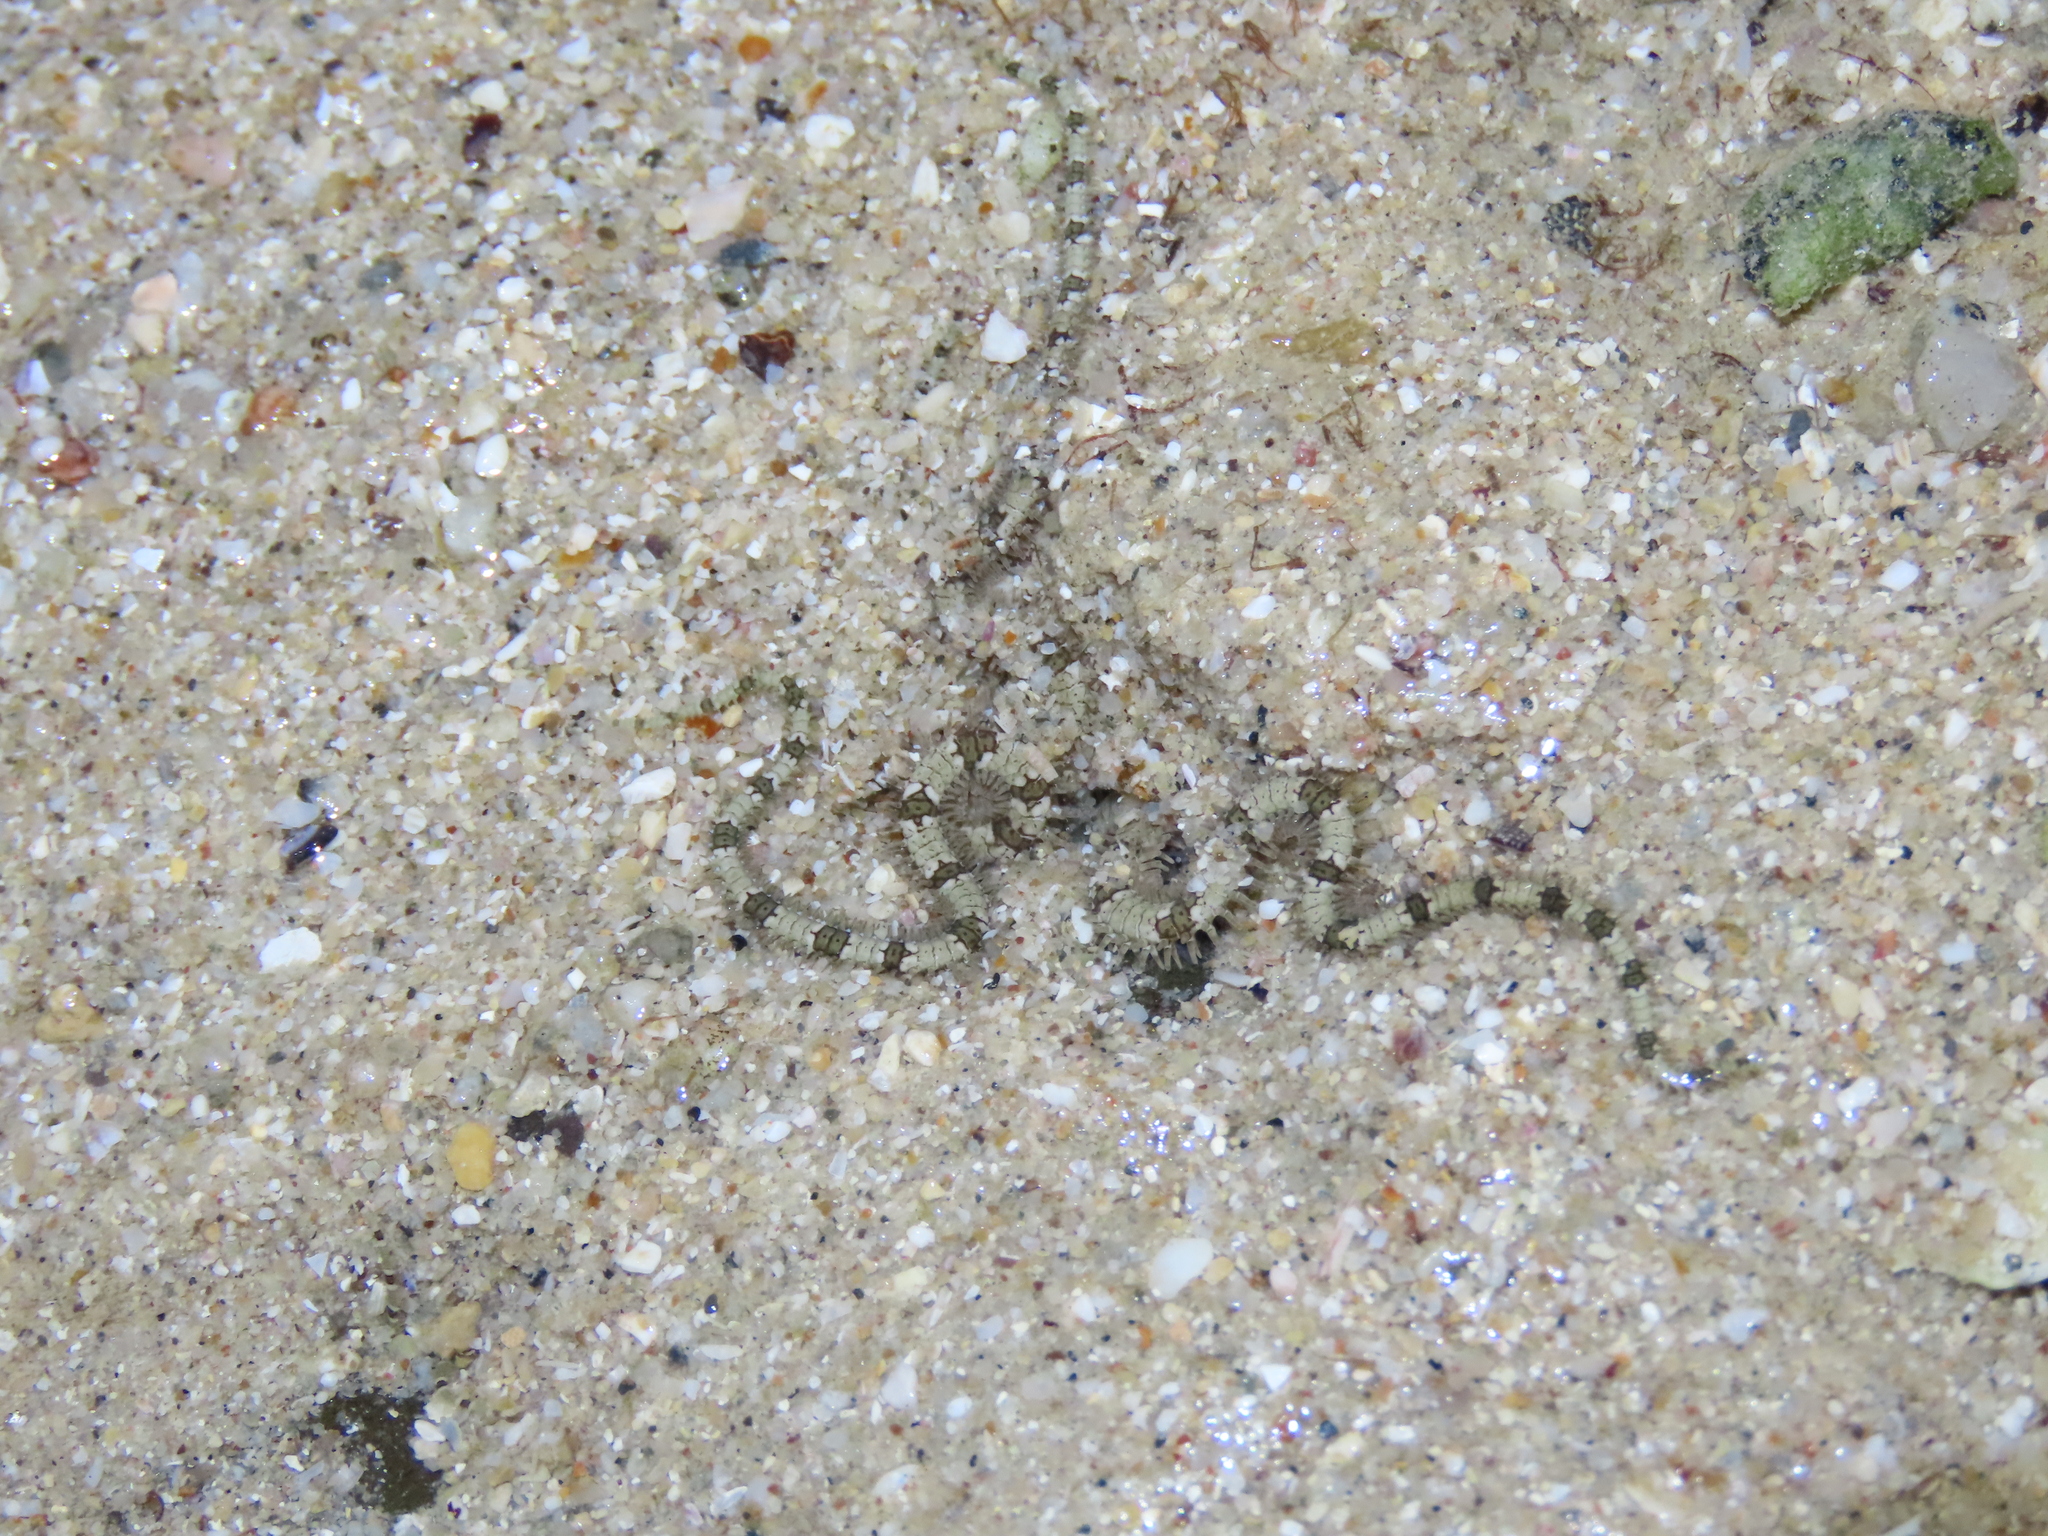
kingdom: Animalia
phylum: Echinodermata
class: Ophiuroidea
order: Amphilepidida
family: Ophionereididae
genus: Ophionereis
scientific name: Ophionereis annulata
